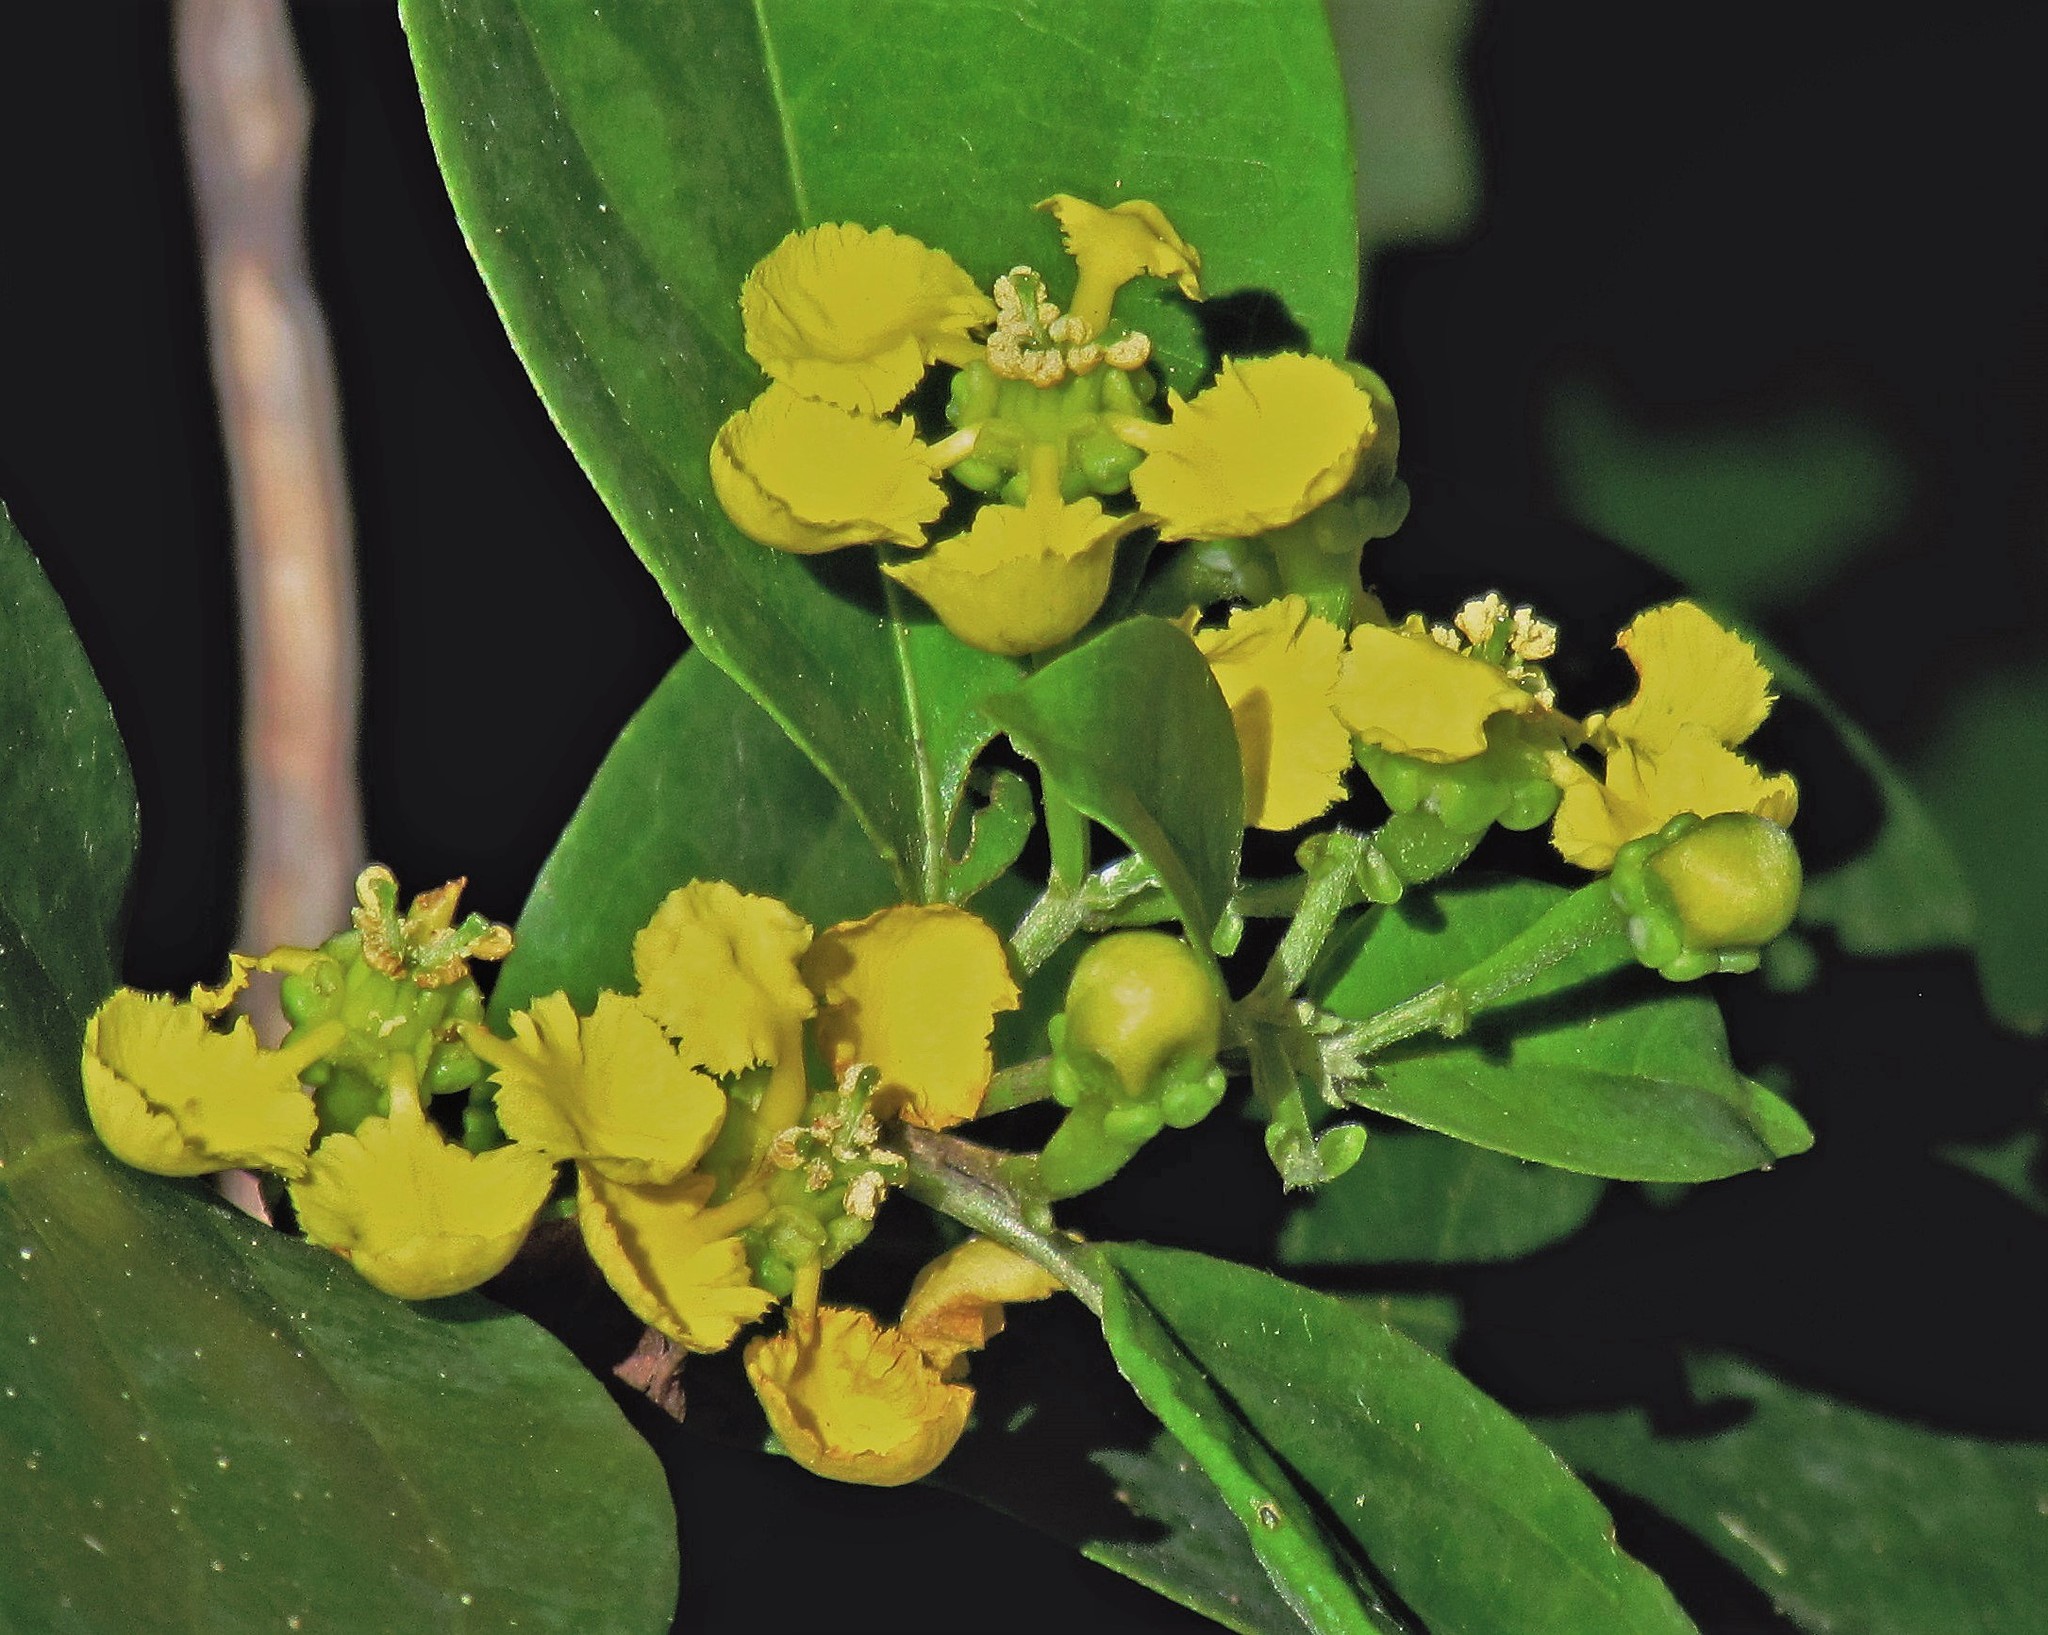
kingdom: Plantae
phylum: Tracheophyta
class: Magnoliopsida
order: Malpighiales
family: Malpighiaceae
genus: Callaeum
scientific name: Callaeum psilophyllum
